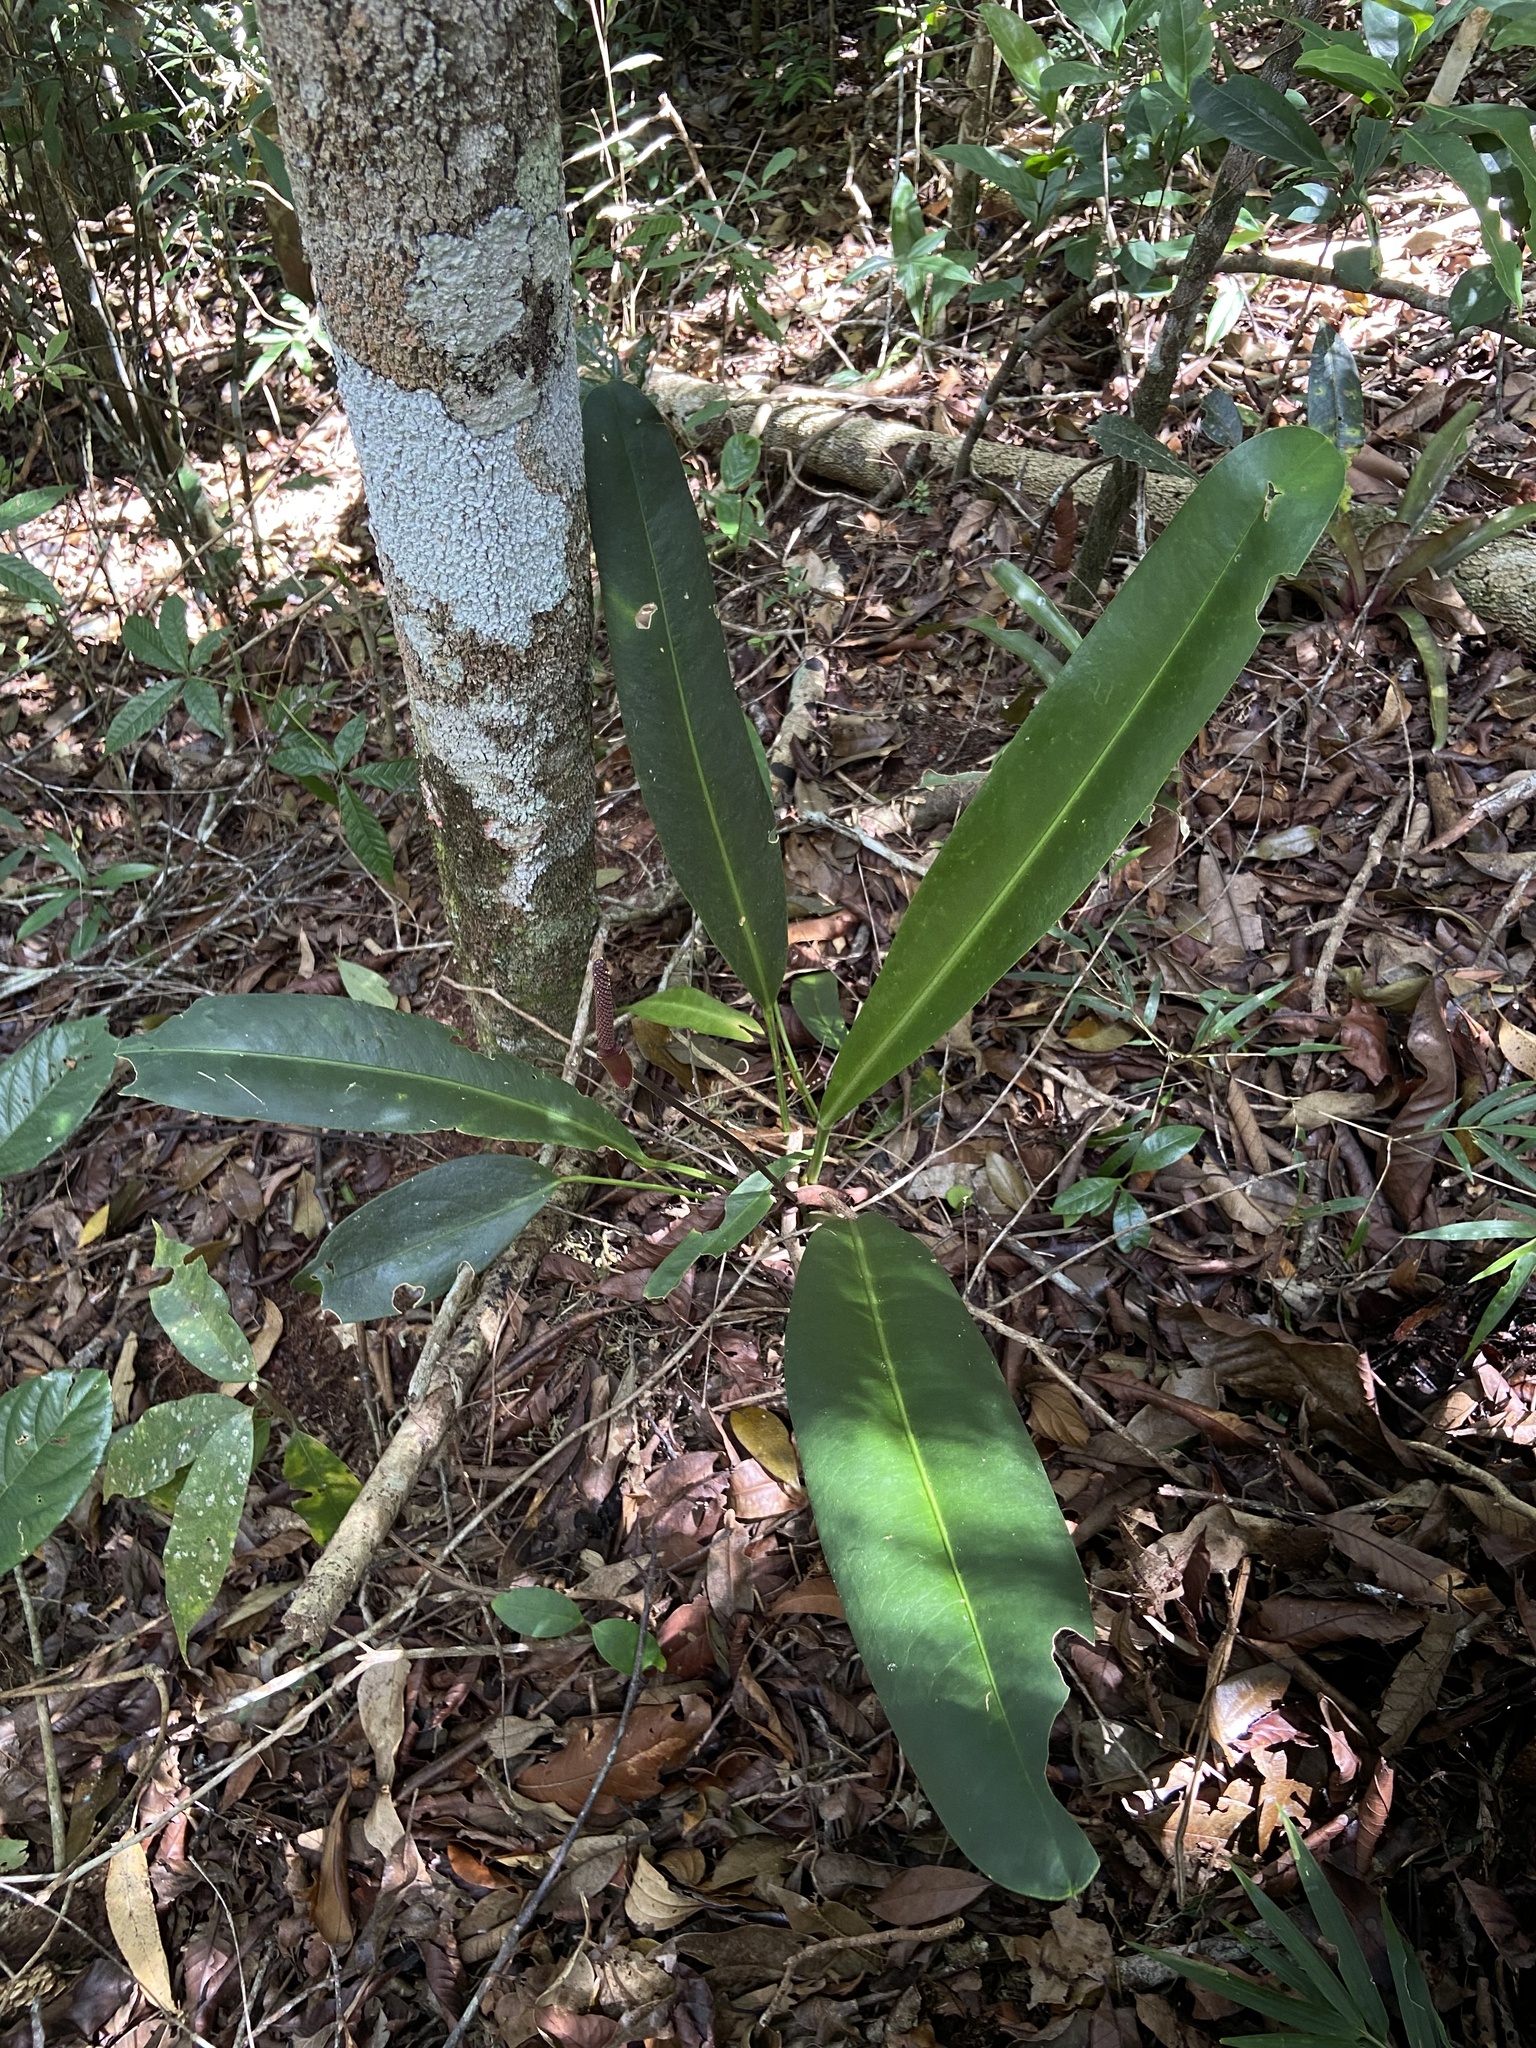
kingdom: Plantae
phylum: Tracheophyta
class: Liliopsida
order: Alismatales
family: Araceae
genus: Anthurium
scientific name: Anthurium angustifolium
